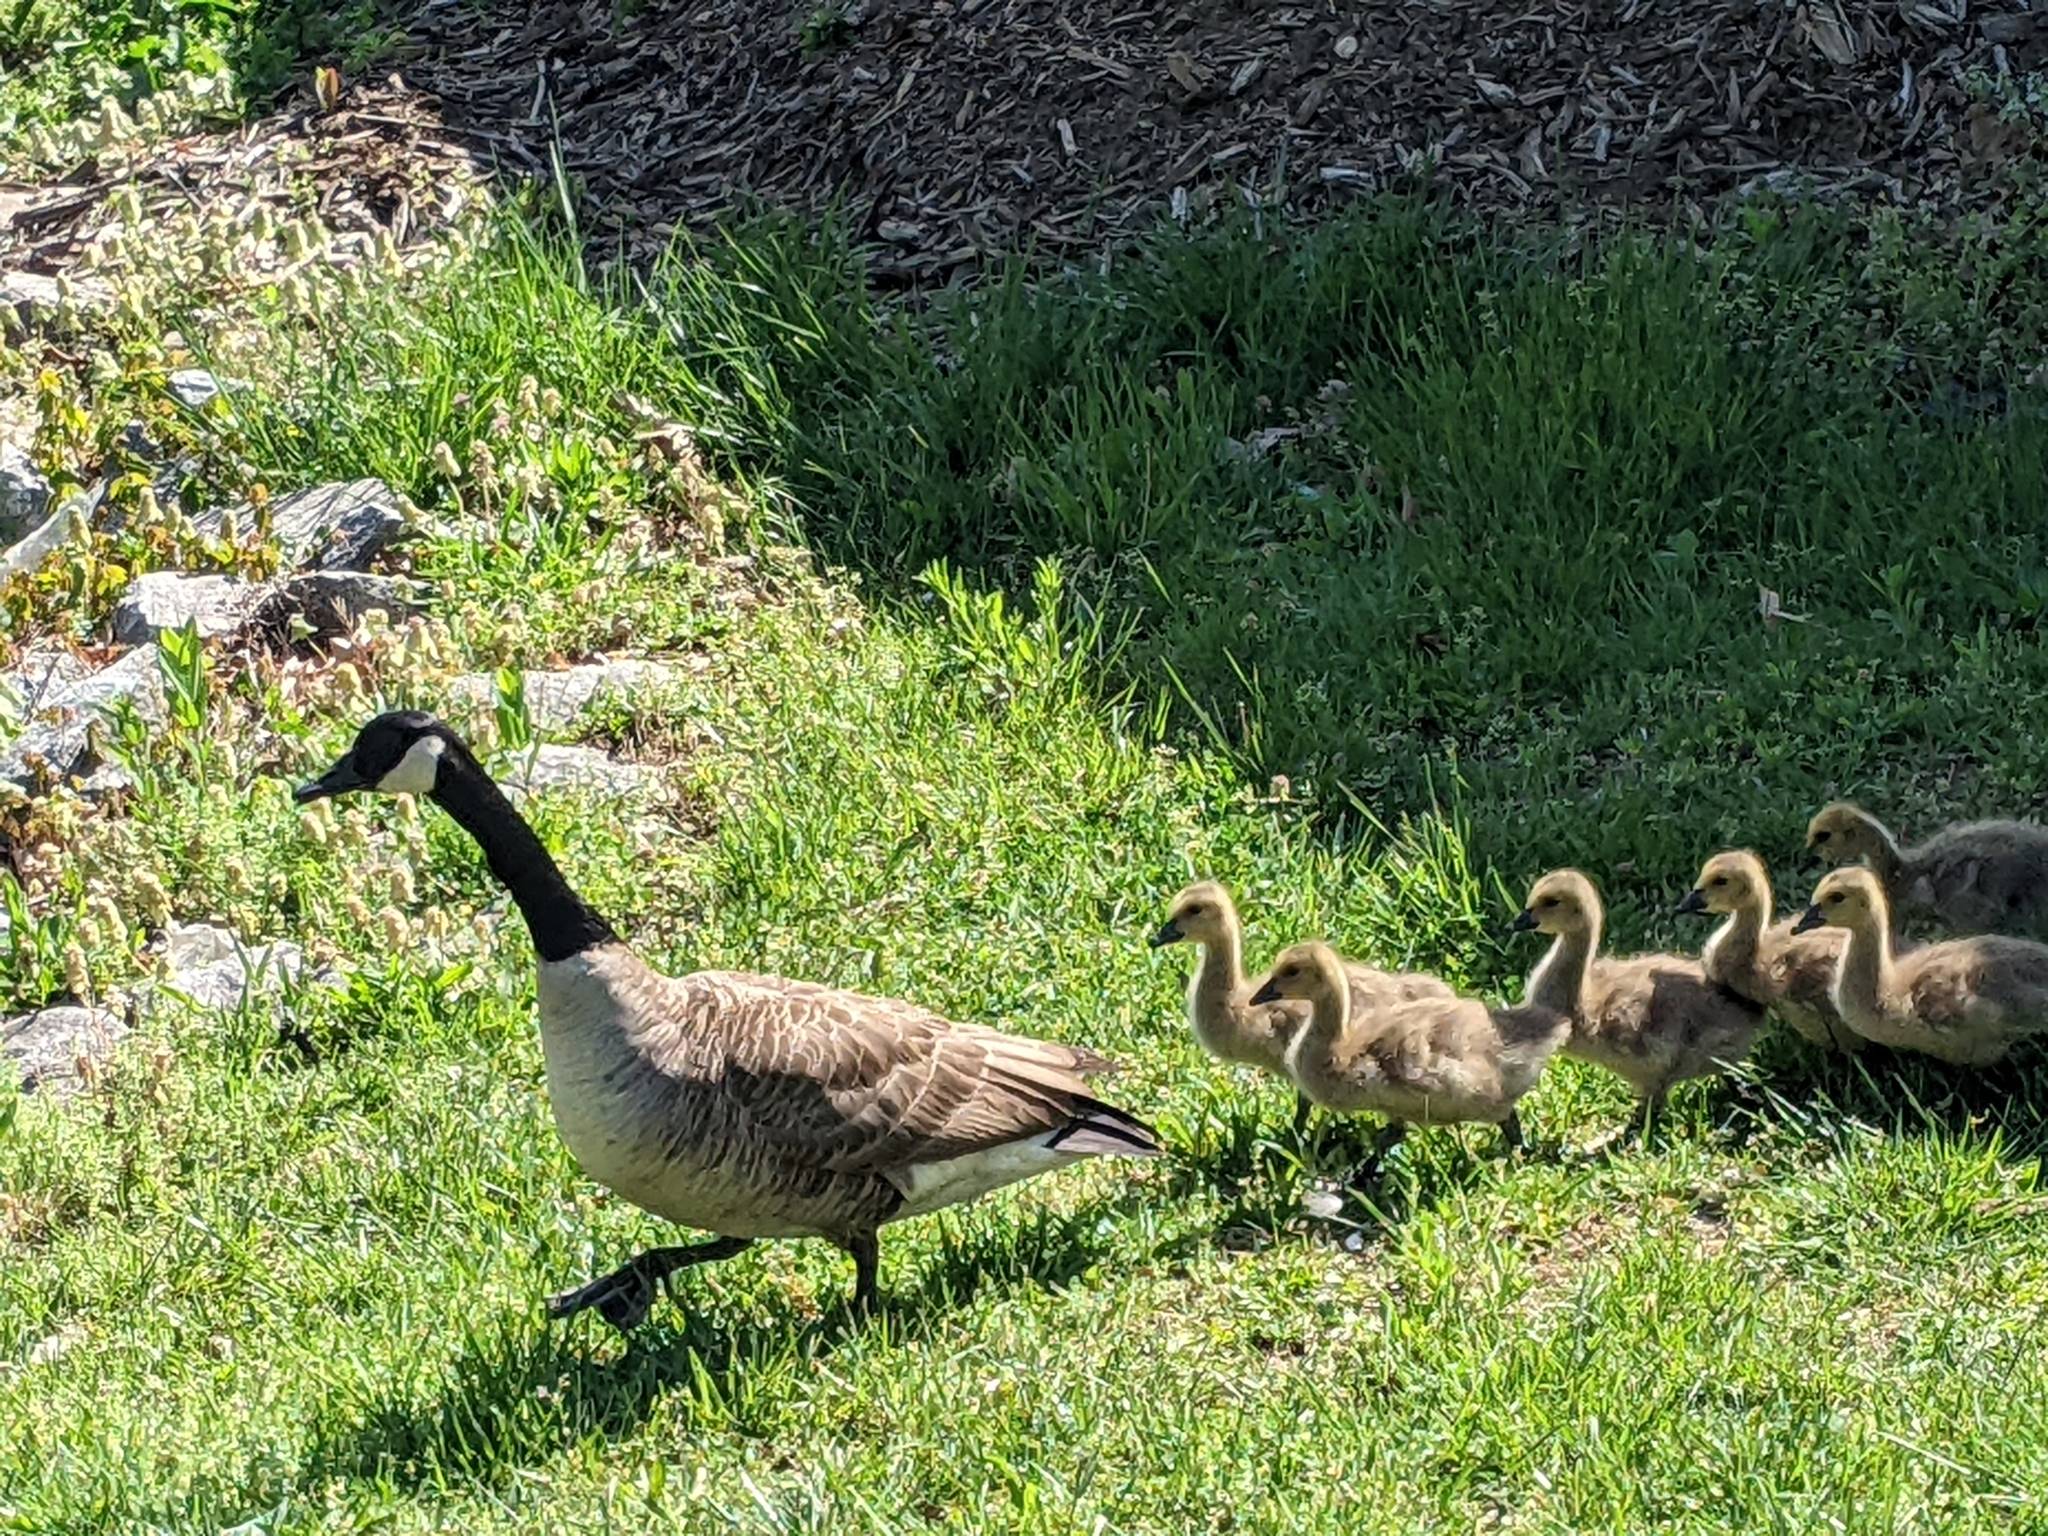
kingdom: Animalia
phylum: Chordata
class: Aves
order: Anseriformes
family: Anatidae
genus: Branta
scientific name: Branta canadensis
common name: Canada goose
